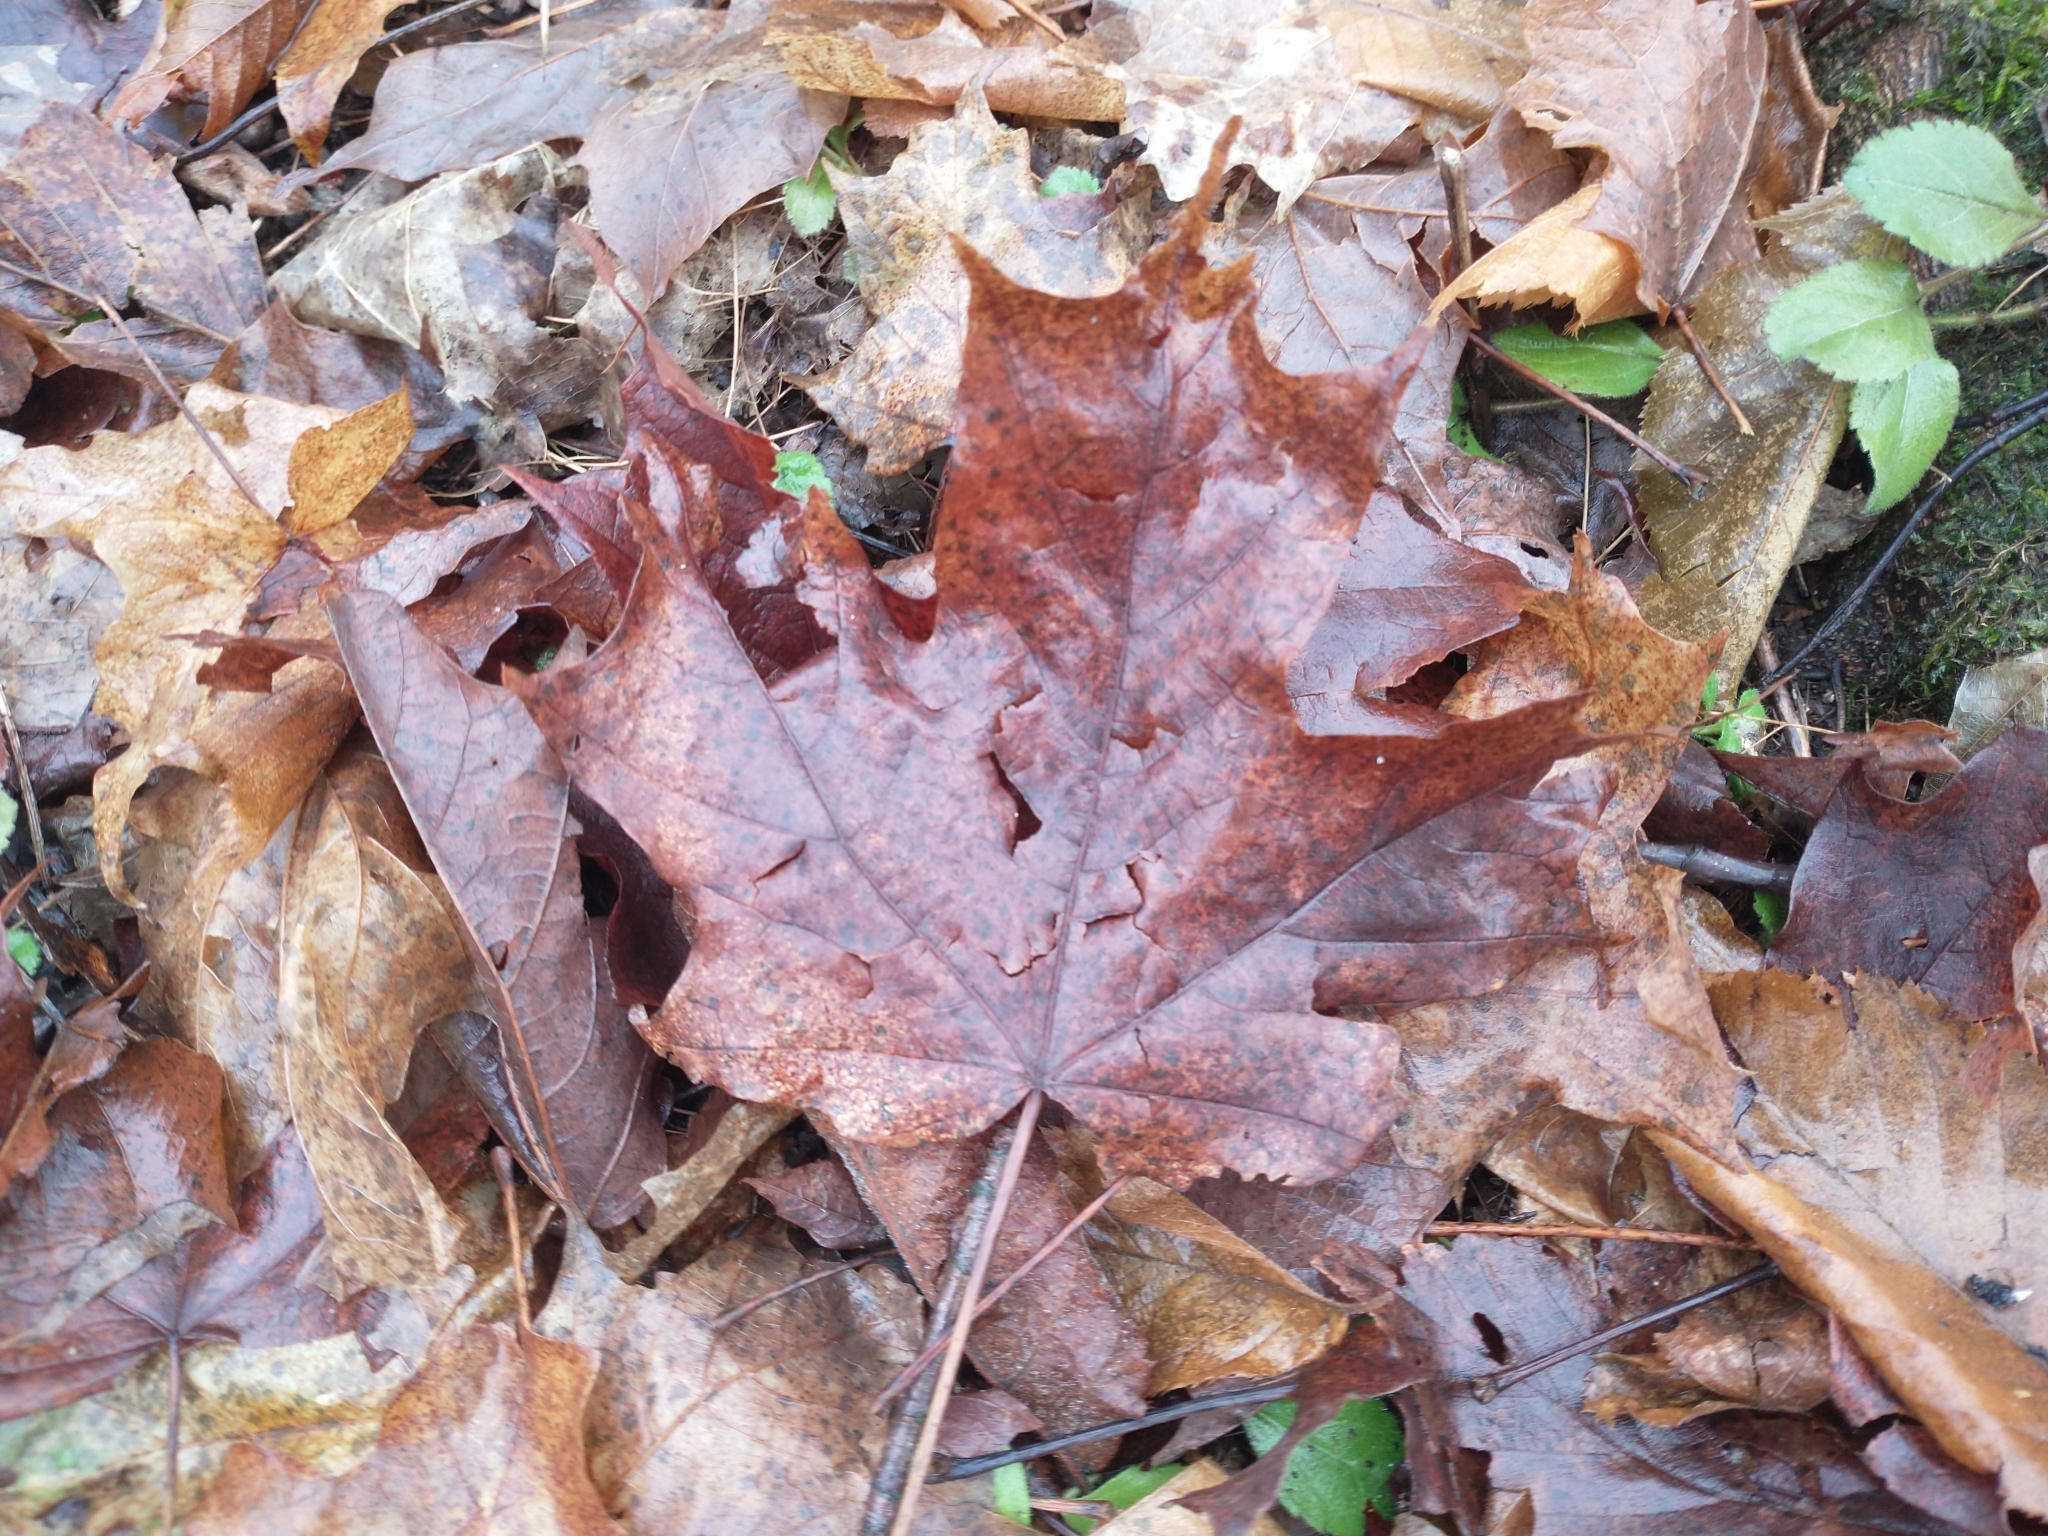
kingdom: Plantae
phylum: Tracheophyta
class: Magnoliopsida
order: Sapindales
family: Sapindaceae
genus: Acer
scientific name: Acer saccharum
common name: Sugar maple
